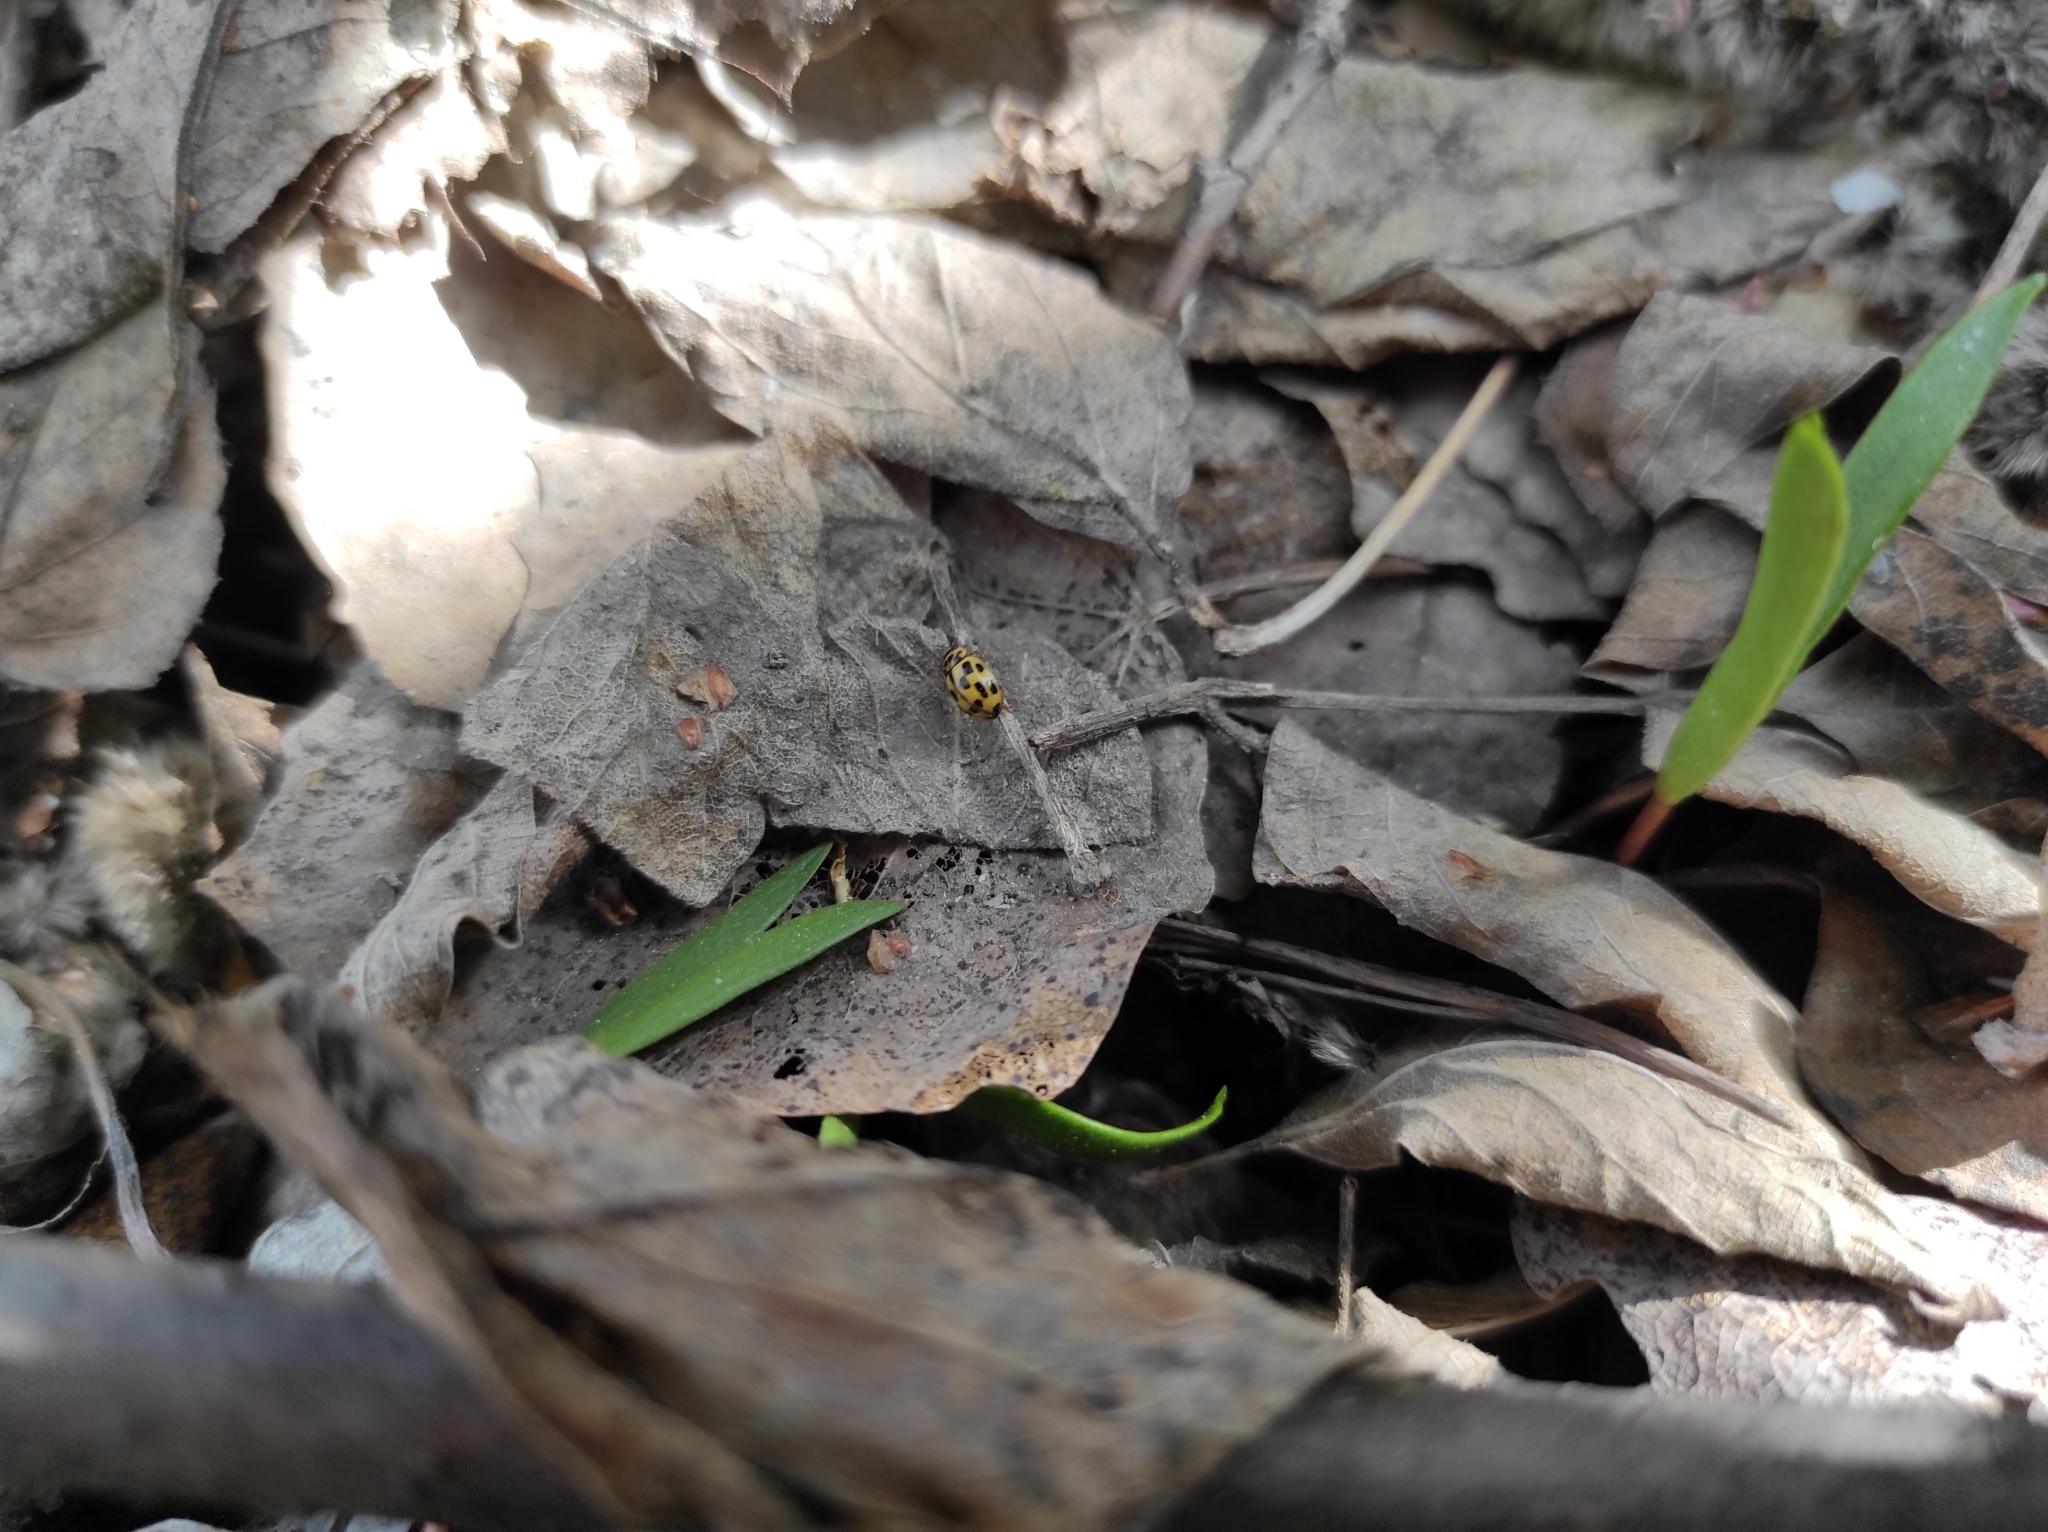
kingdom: Animalia
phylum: Arthropoda
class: Insecta
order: Coleoptera
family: Coccinellidae
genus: Propylaea
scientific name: Propylaea quatuordecimpunctata
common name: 14-spotted ladybird beetle
